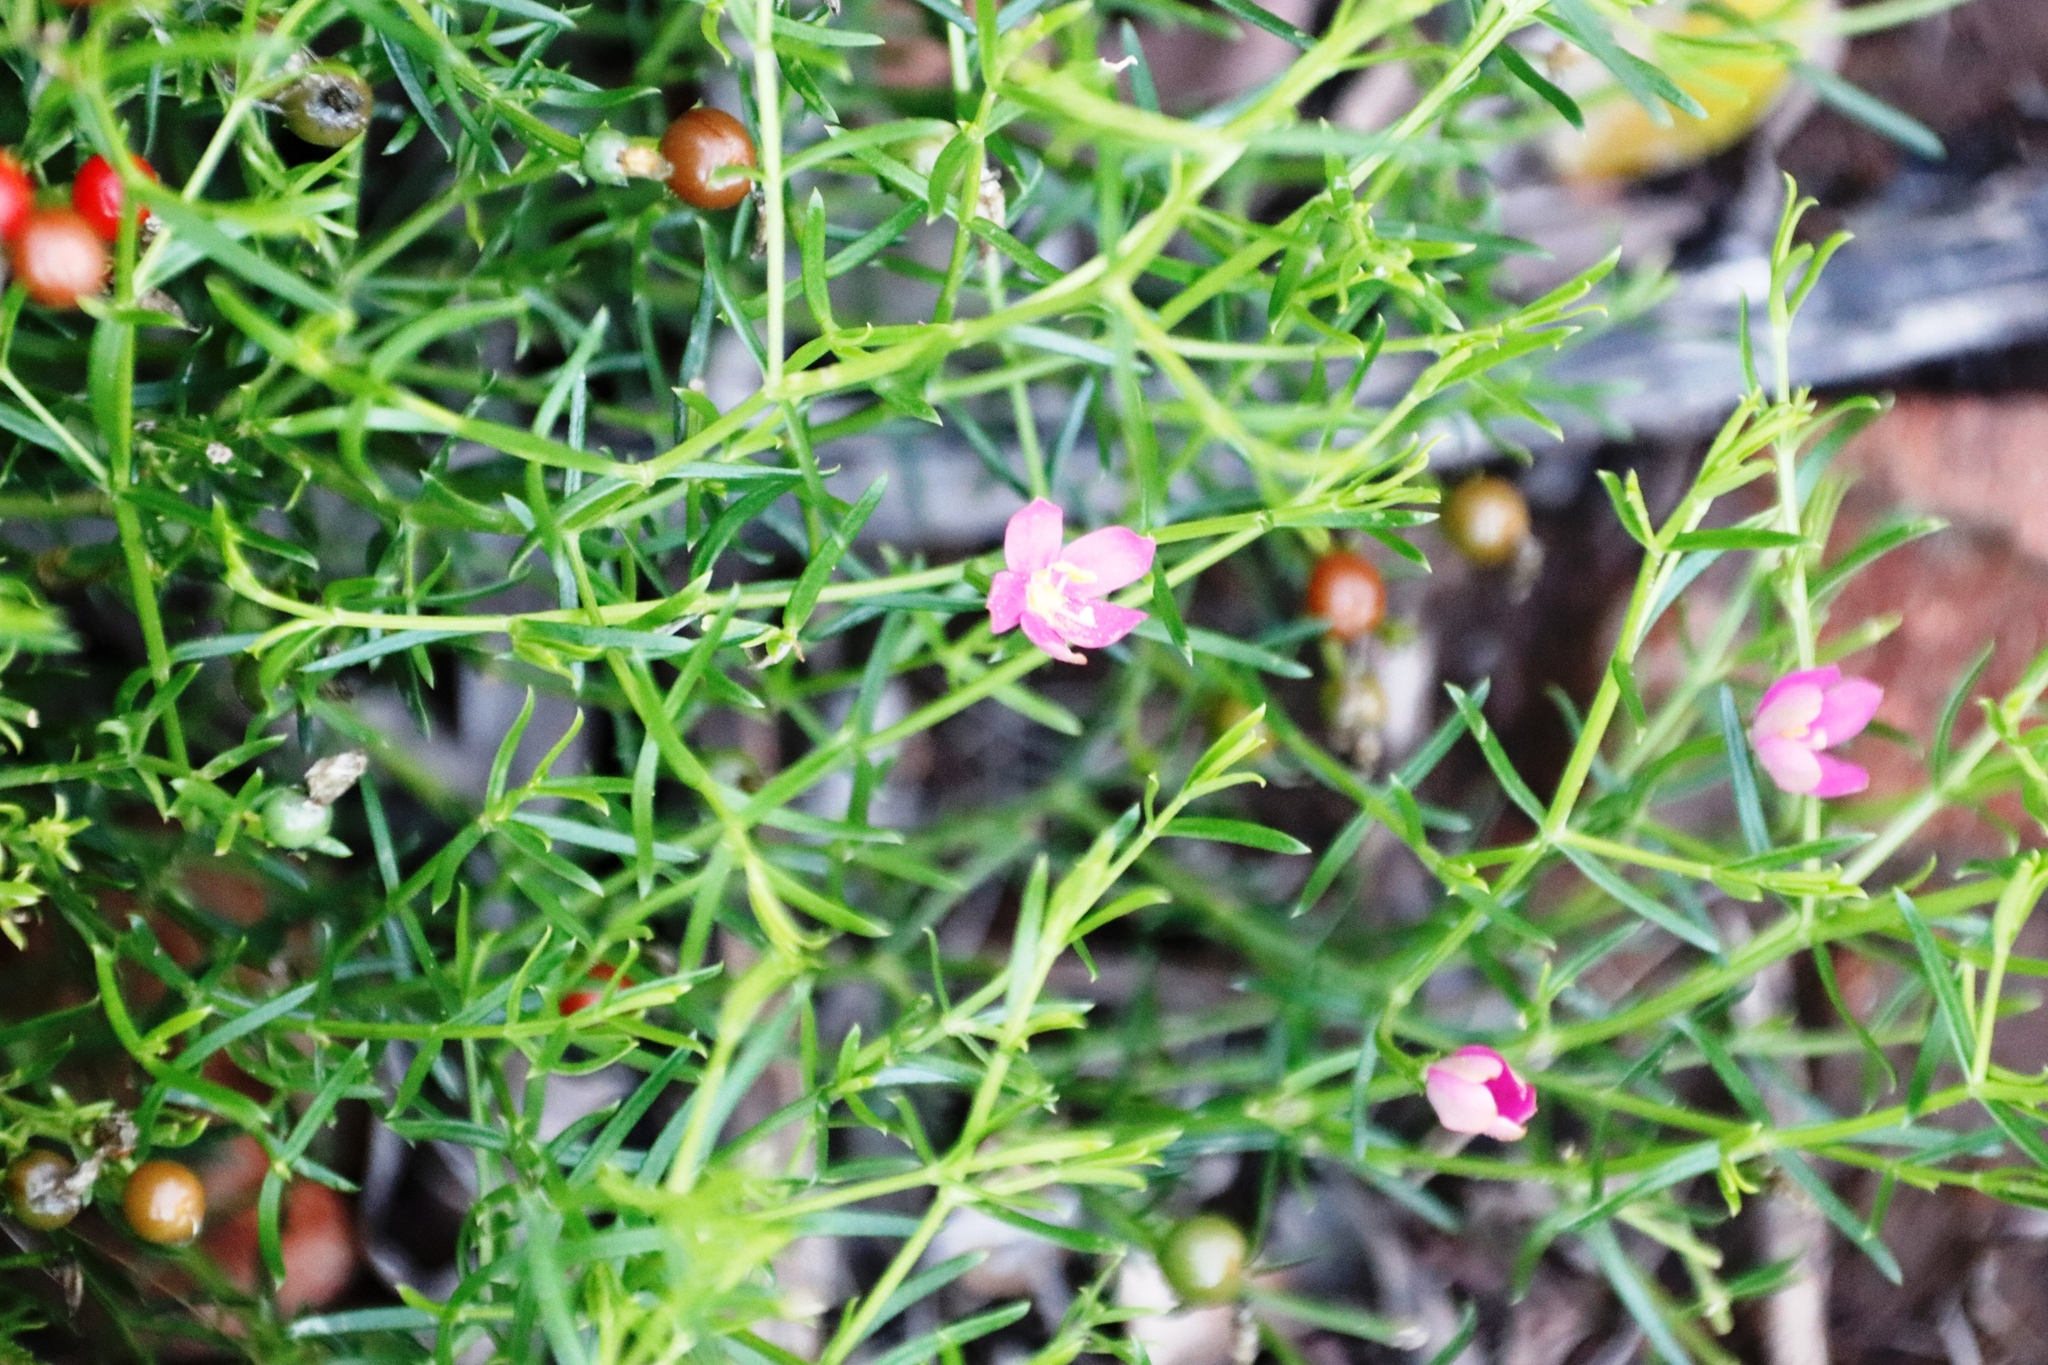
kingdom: Plantae
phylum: Tracheophyta
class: Magnoliopsida
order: Gentianales
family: Gentianaceae
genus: Chironia
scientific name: Chironia baccifera
